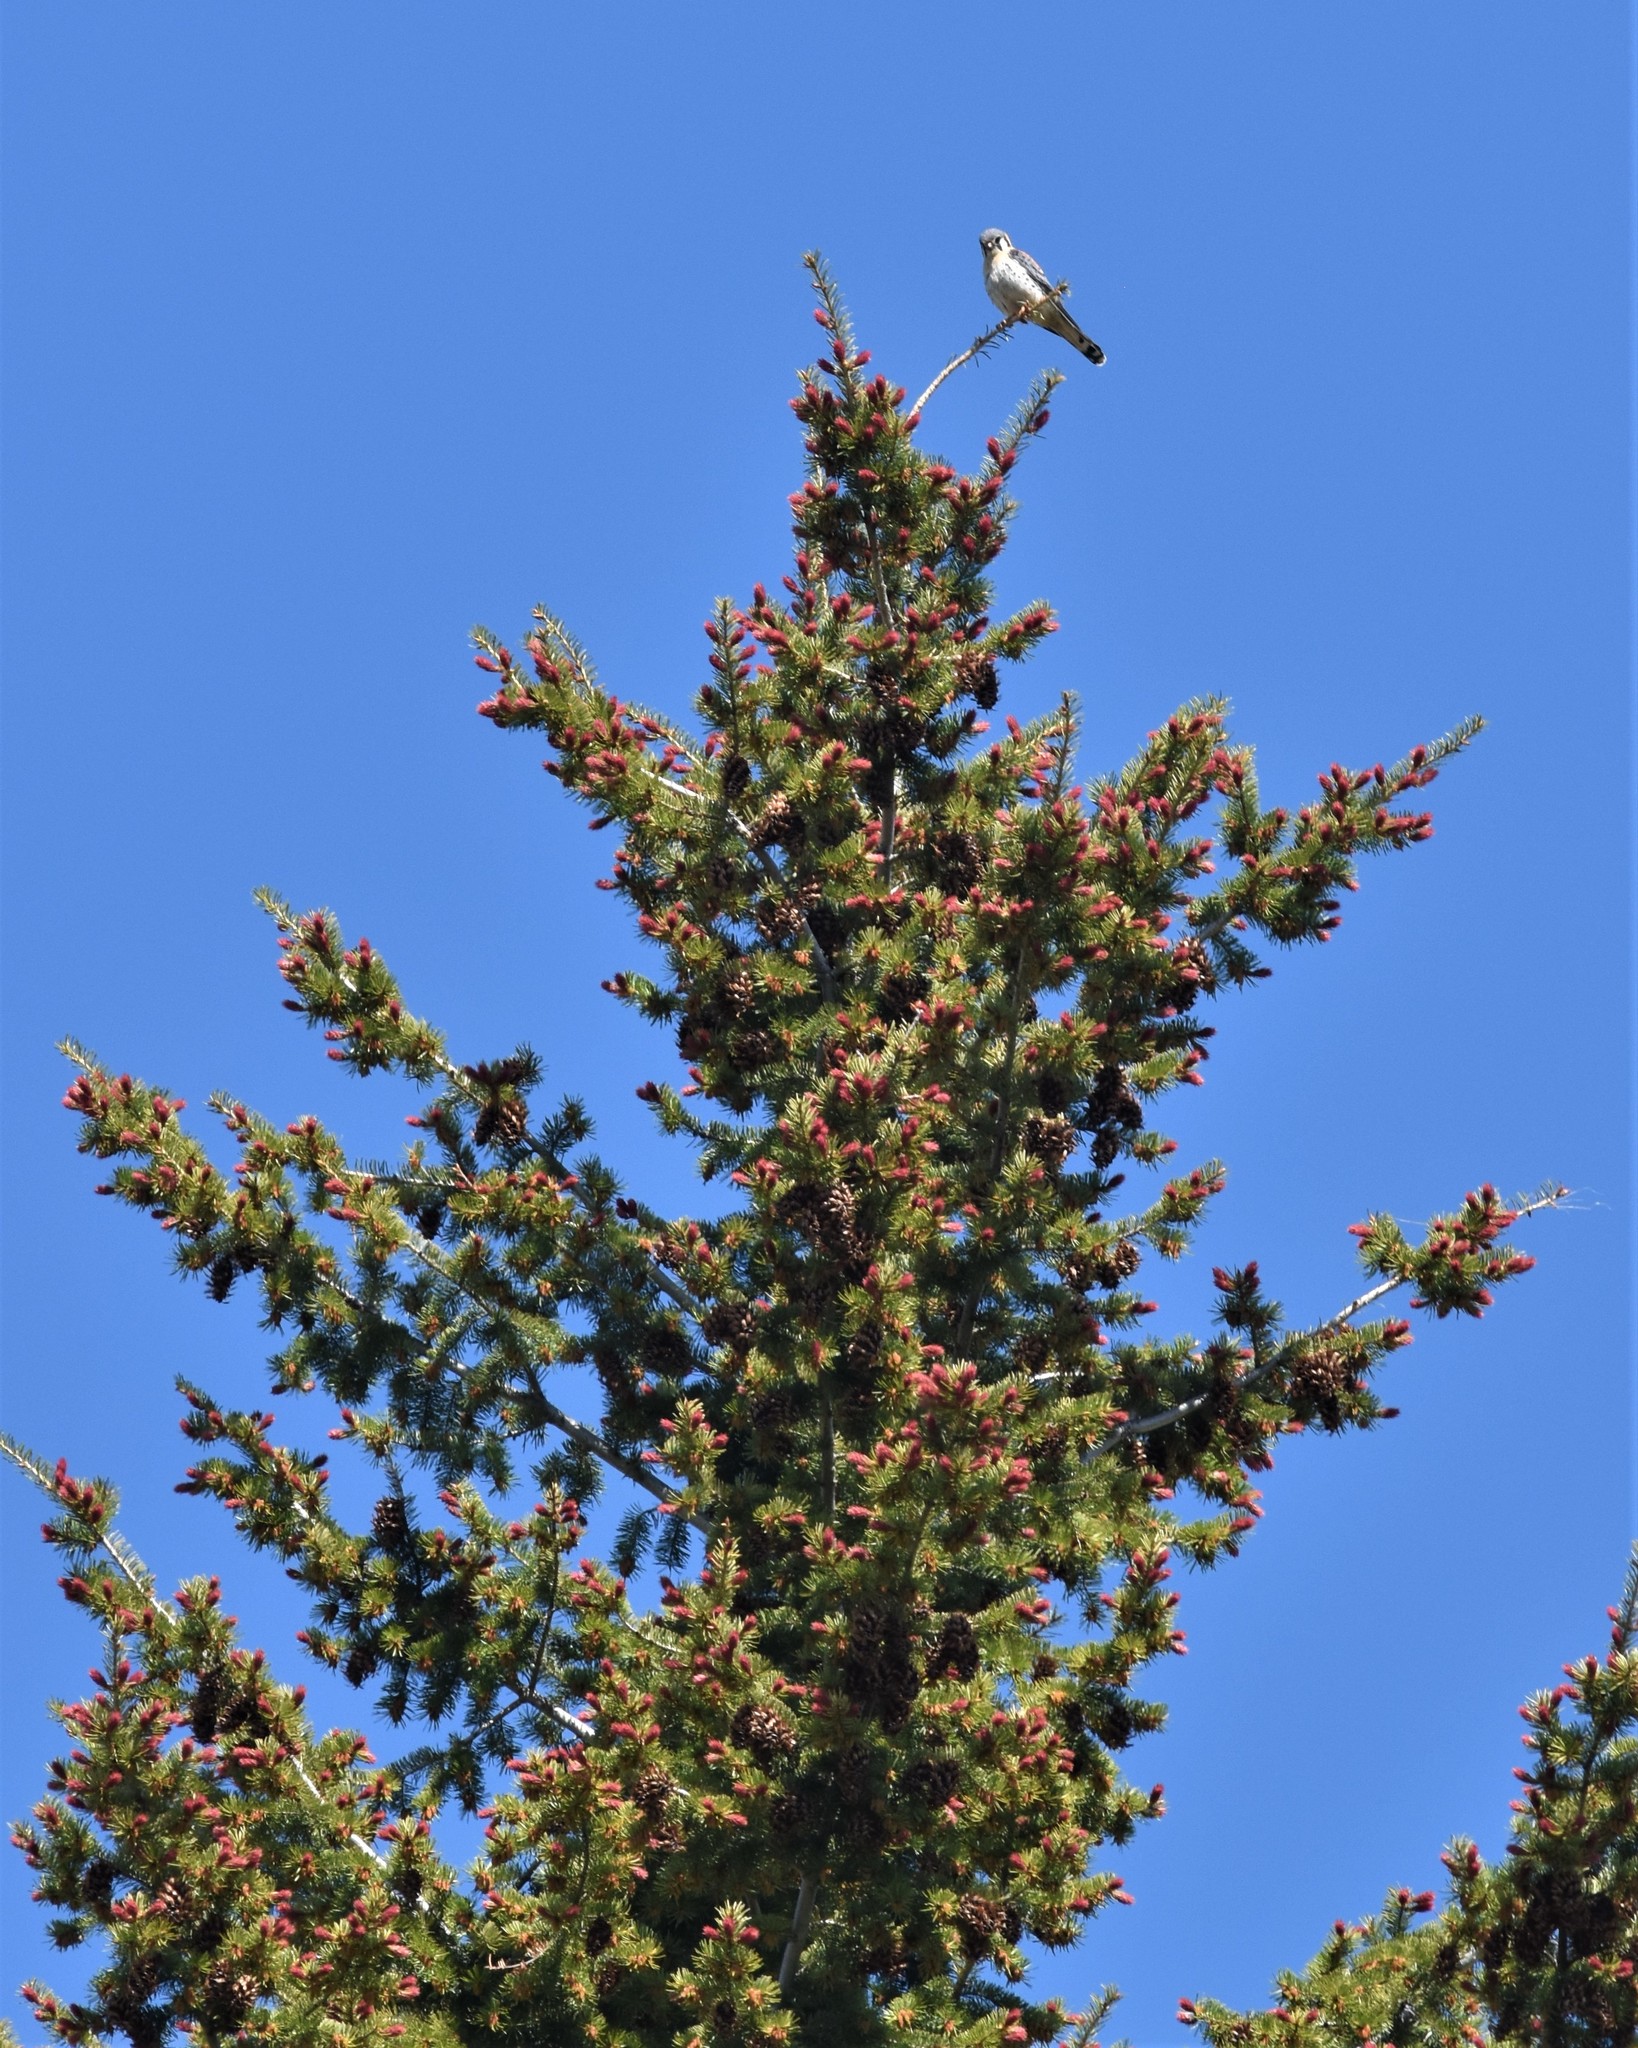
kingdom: Animalia
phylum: Chordata
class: Aves
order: Falconiformes
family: Falconidae
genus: Falco
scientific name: Falco sparverius
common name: American kestrel
